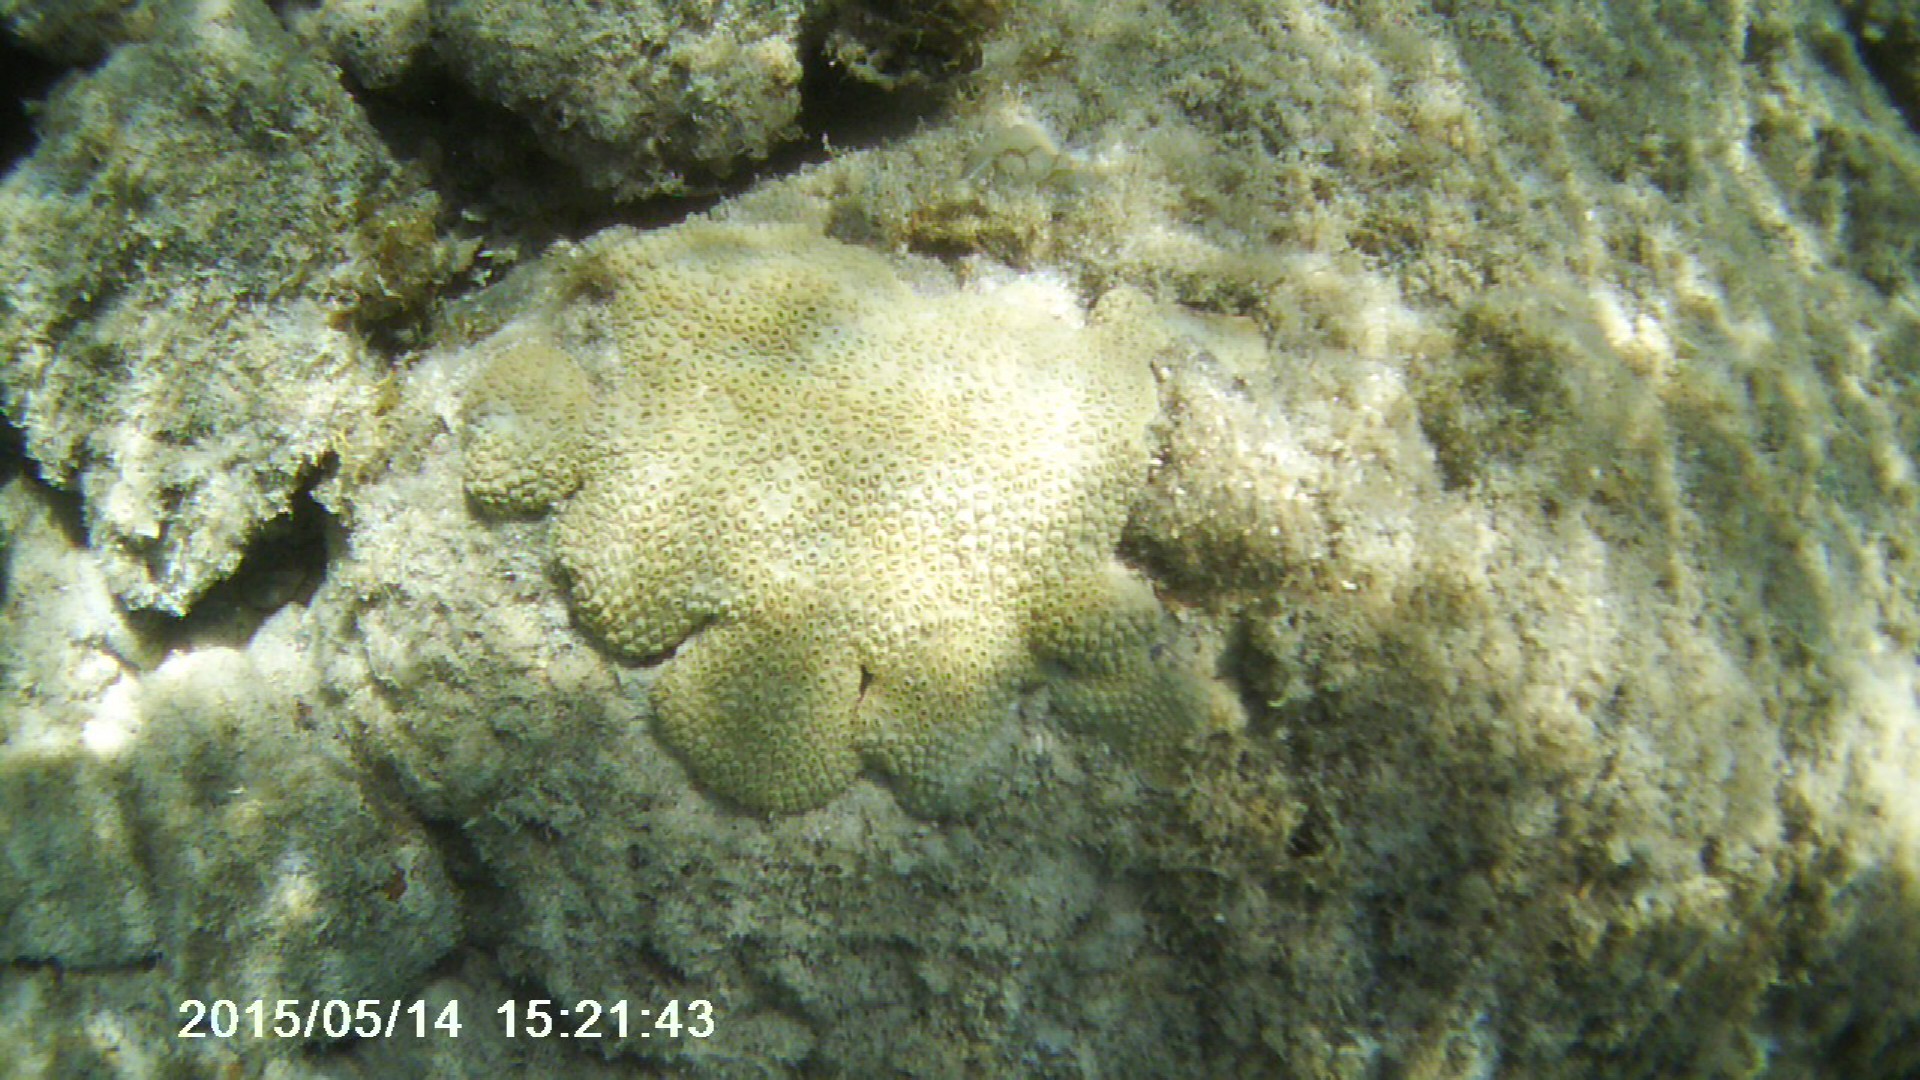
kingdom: Animalia
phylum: Cnidaria
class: Anthozoa
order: Zoantharia
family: Sphenopidae
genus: Palythoa
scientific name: Palythoa caribaeorum
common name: Encrusting colonial anemone
